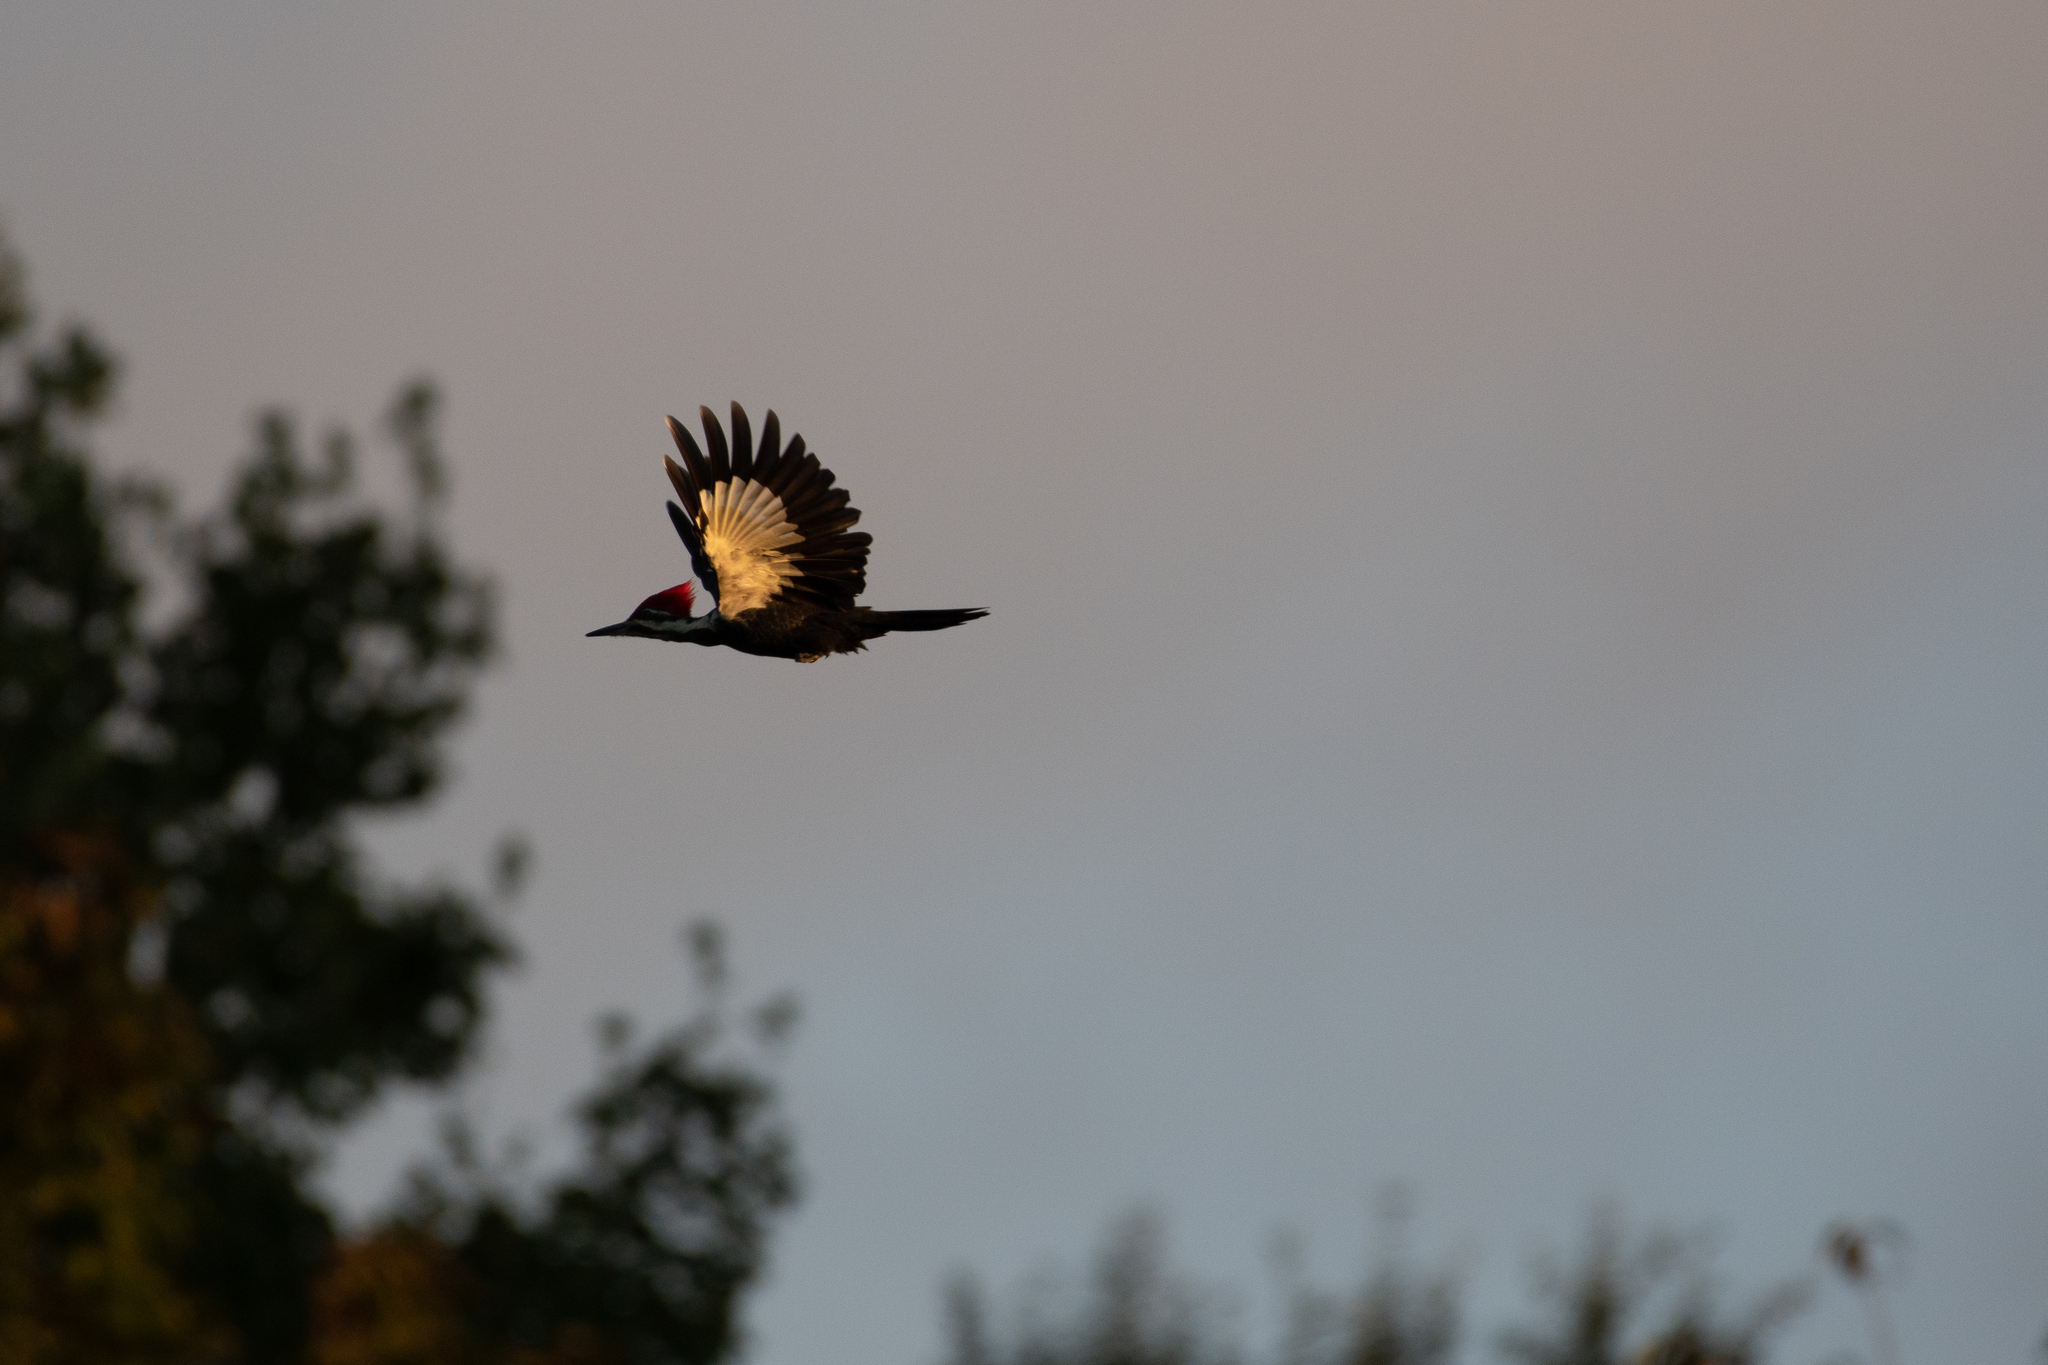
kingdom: Animalia
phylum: Chordata
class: Aves
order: Piciformes
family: Picidae
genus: Dryocopus
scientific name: Dryocopus pileatus
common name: Pileated woodpecker
